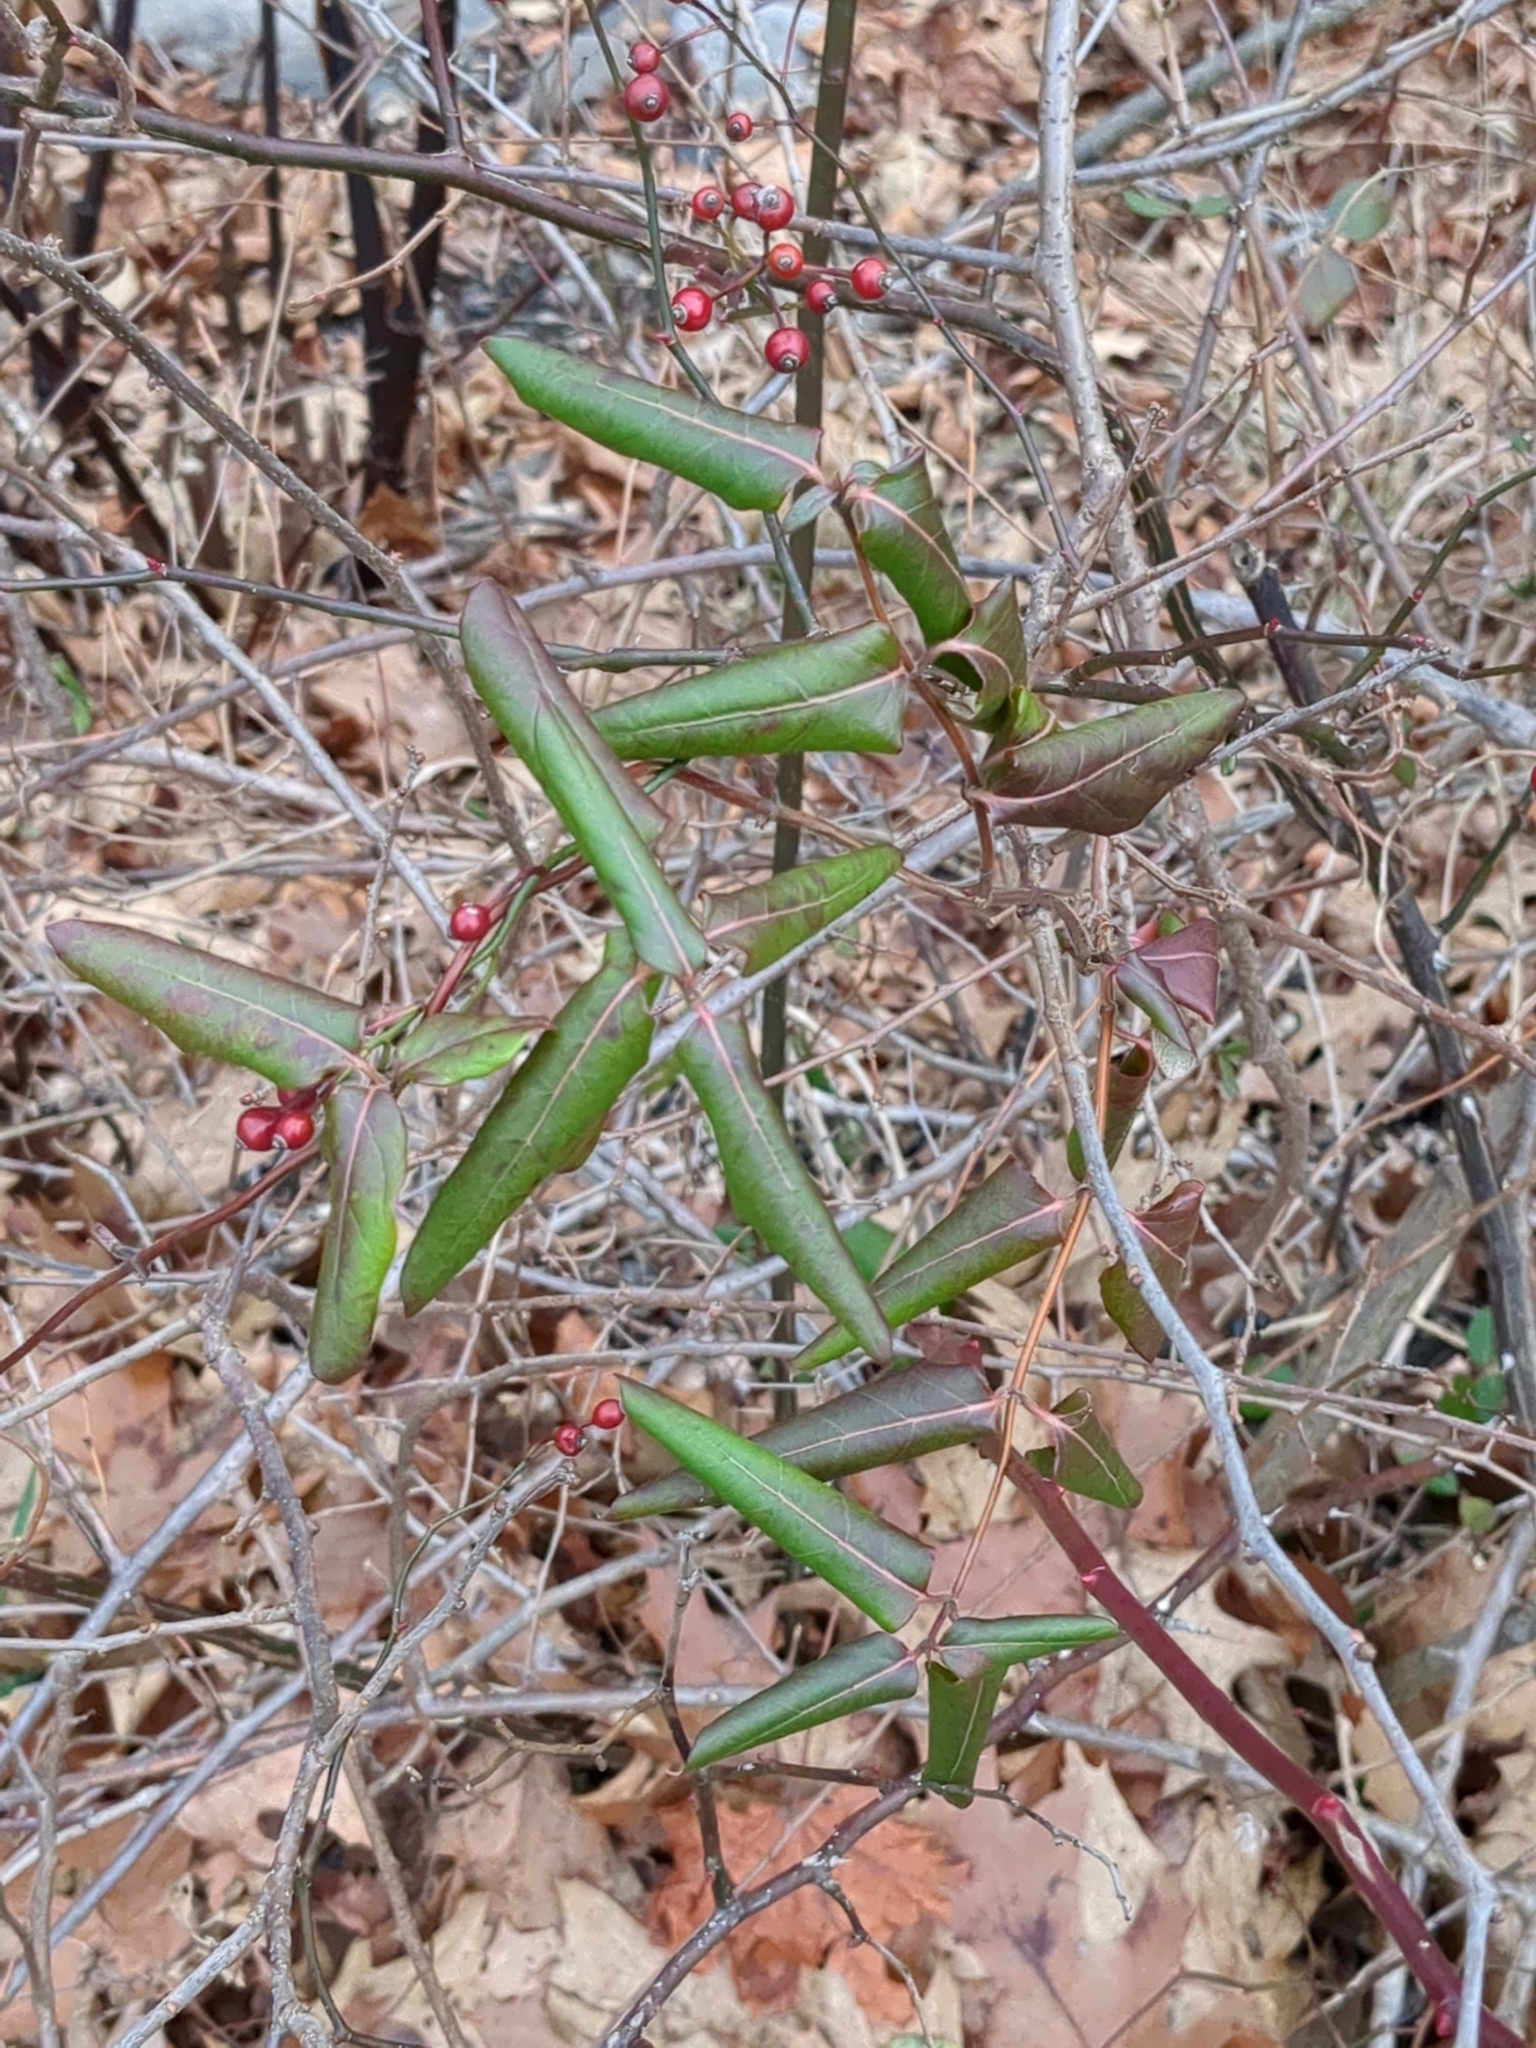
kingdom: Plantae
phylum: Tracheophyta
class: Magnoliopsida
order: Dipsacales
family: Caprifoliaceae
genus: Lonicera
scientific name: Lonicera japonica
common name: Japanese honeysuckle
